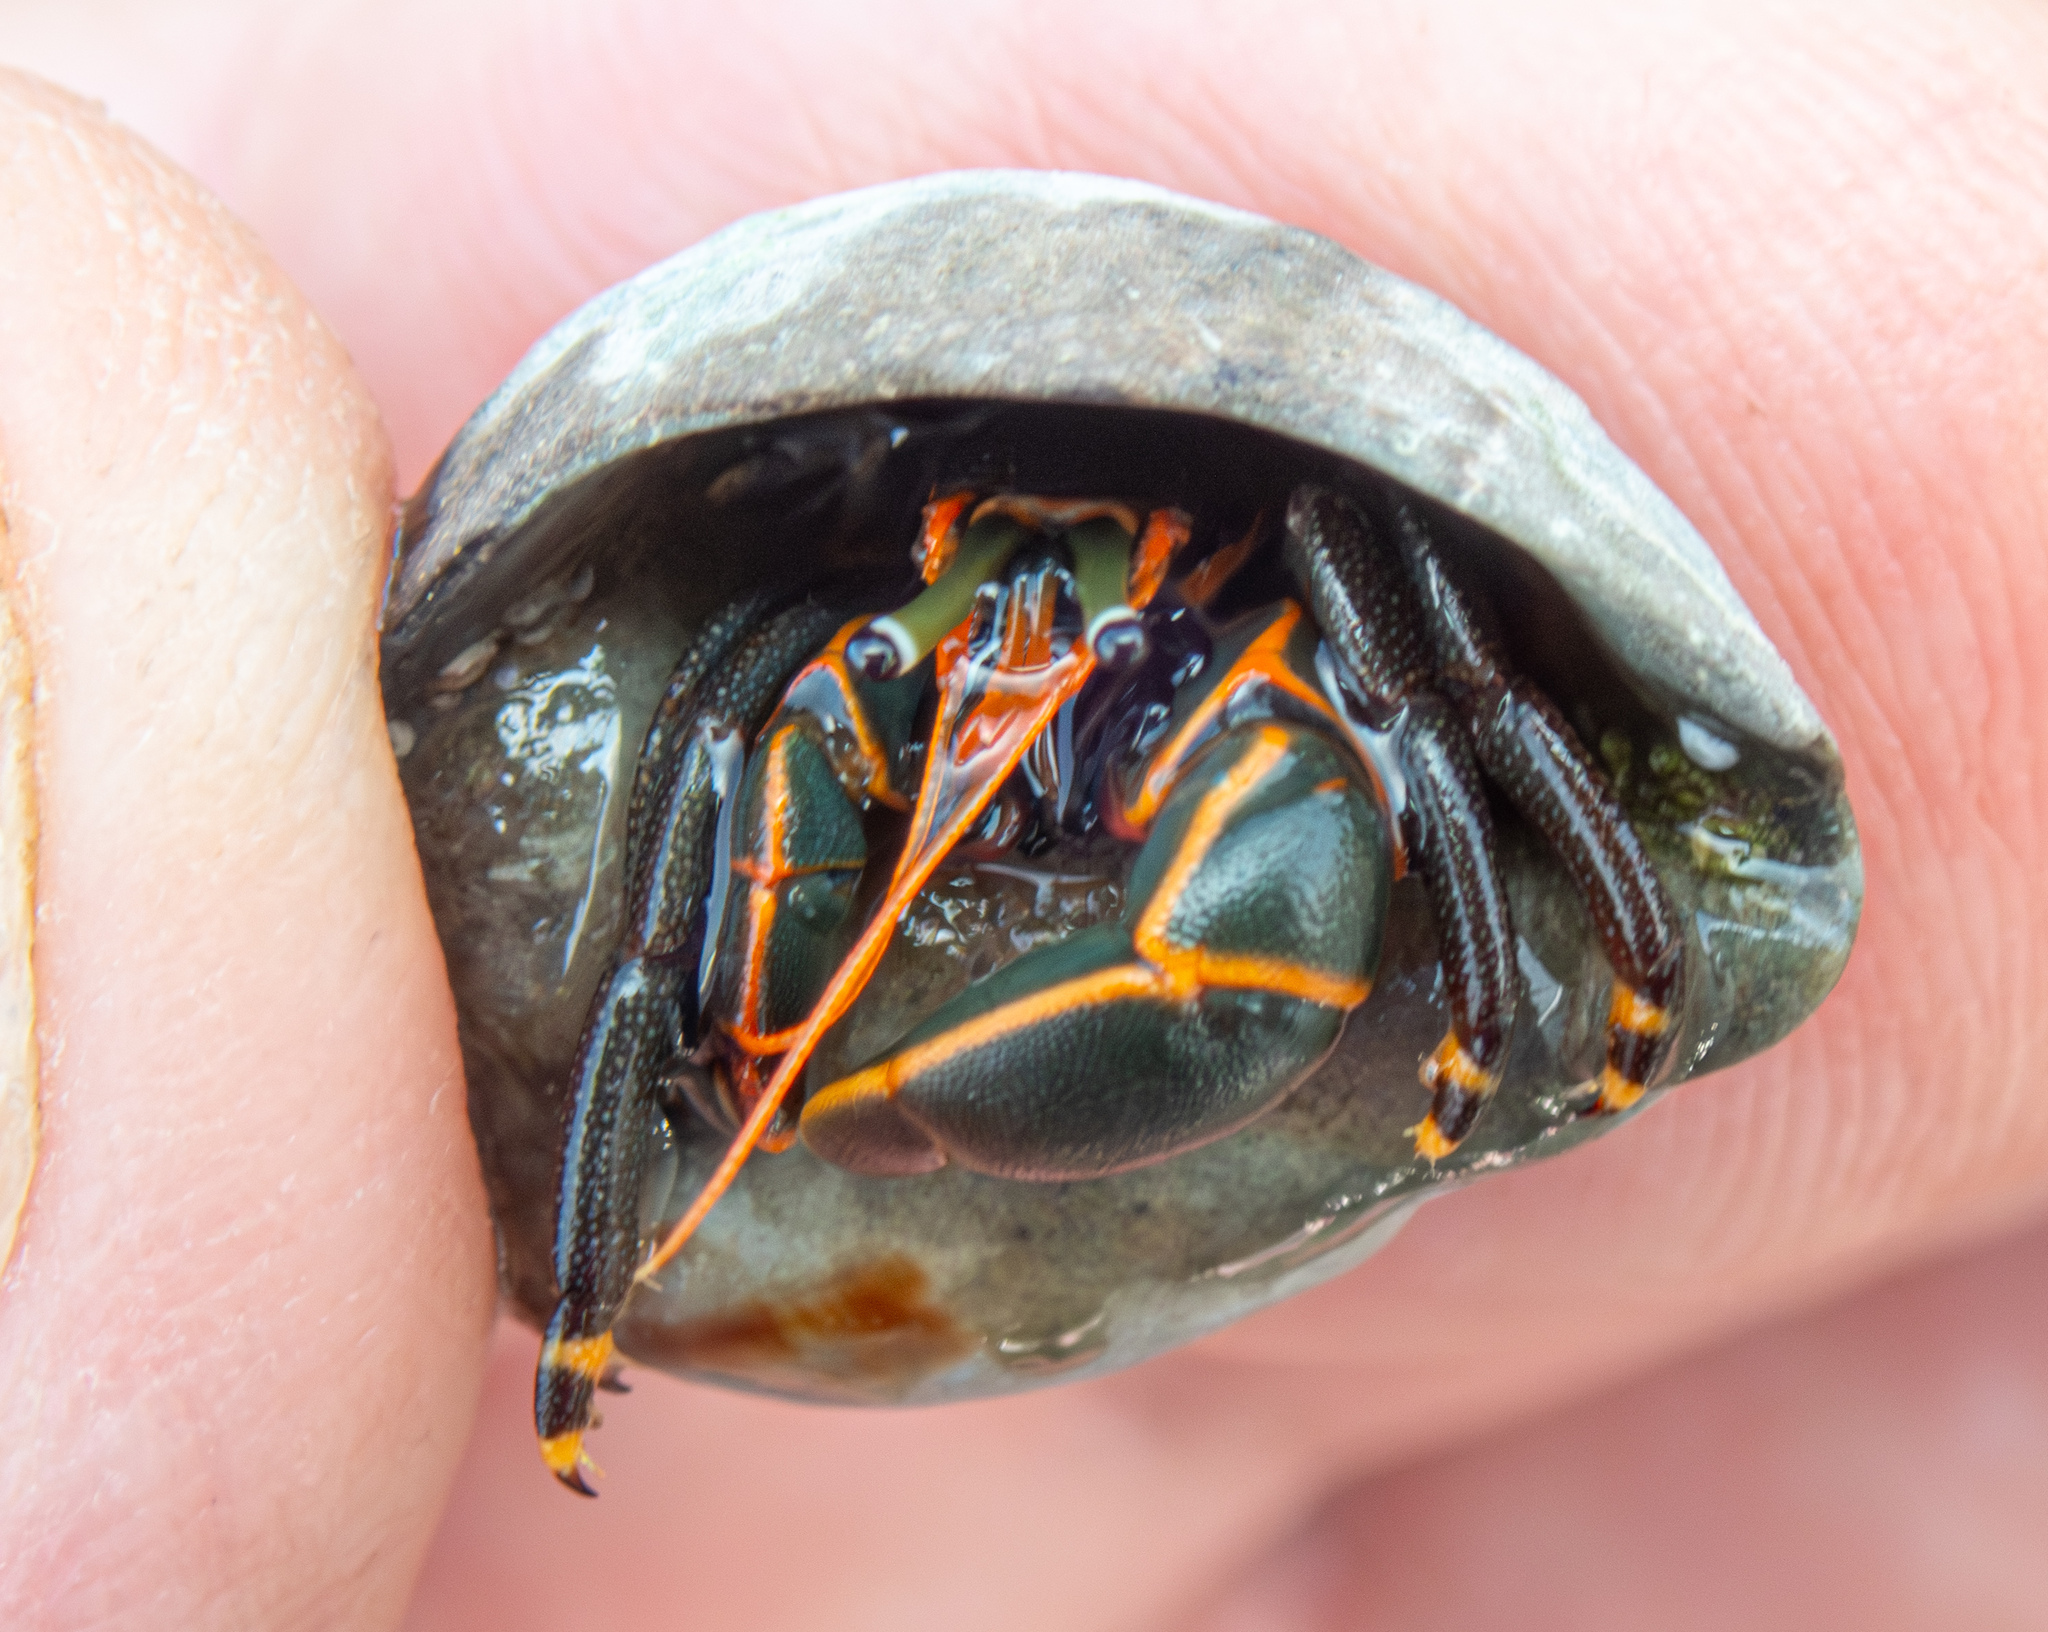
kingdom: Animalia
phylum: Arthropoda
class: Malacostraca
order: Decapoda
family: Diogenidae
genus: Calcinus
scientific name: Calcinus obscurus
